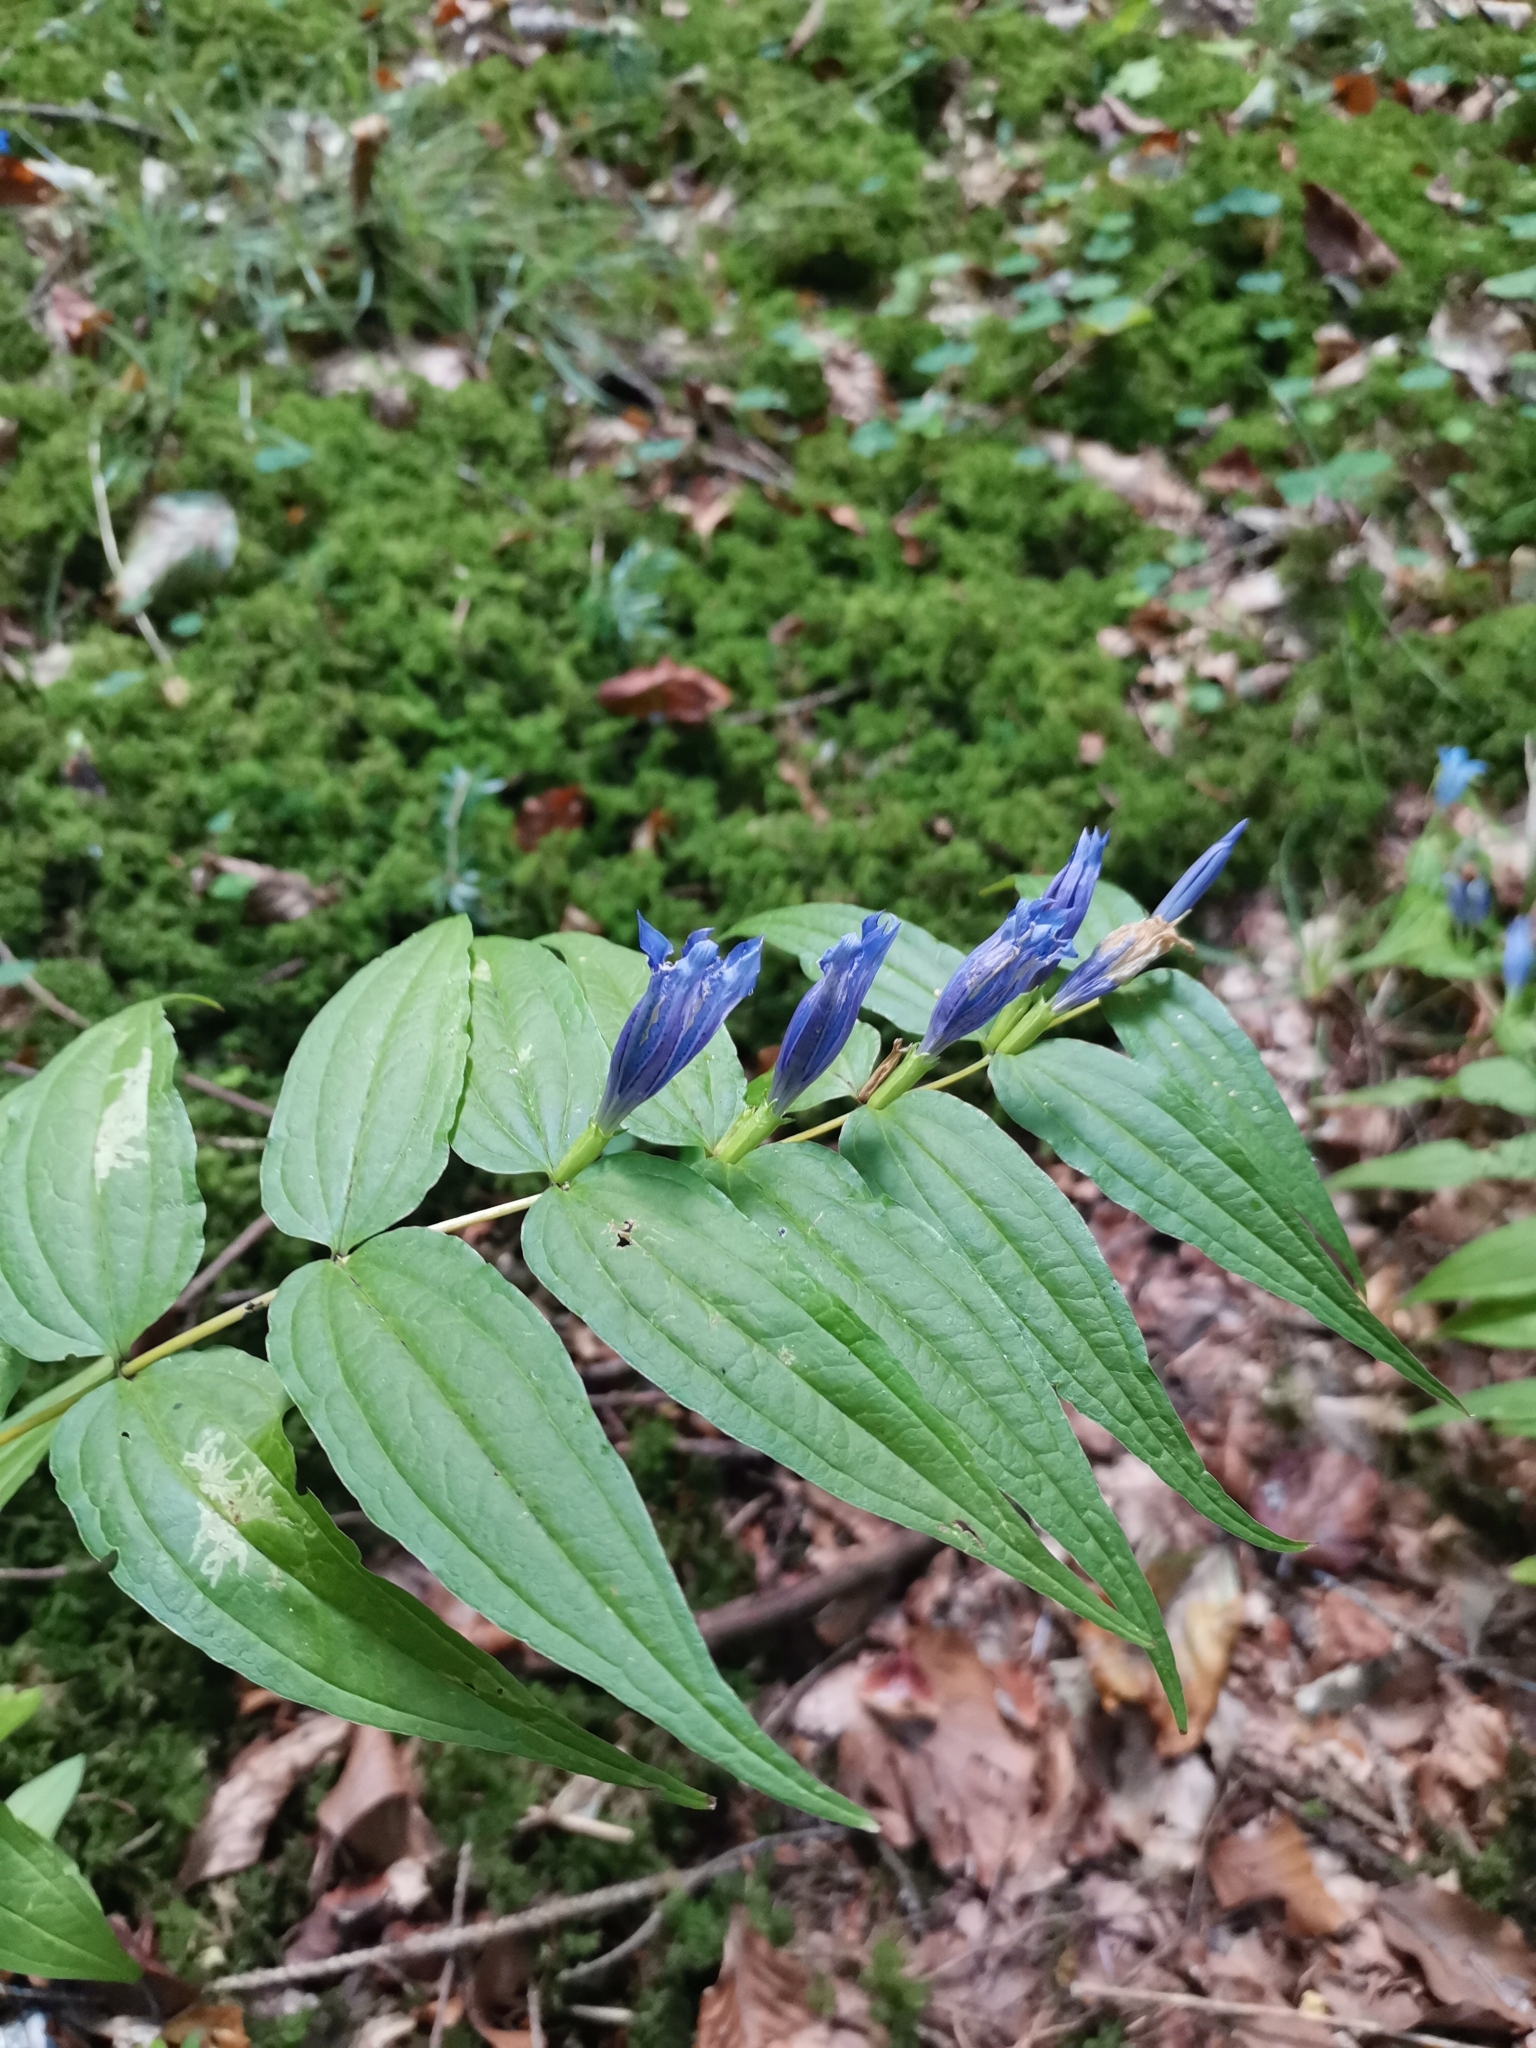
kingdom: Plantae
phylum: Tracheophyta
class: Magnoliopsida
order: Gentianales
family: Gentianaceae
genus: Gentiana
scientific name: Gentiana asclepiadea
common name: Willow gentian
